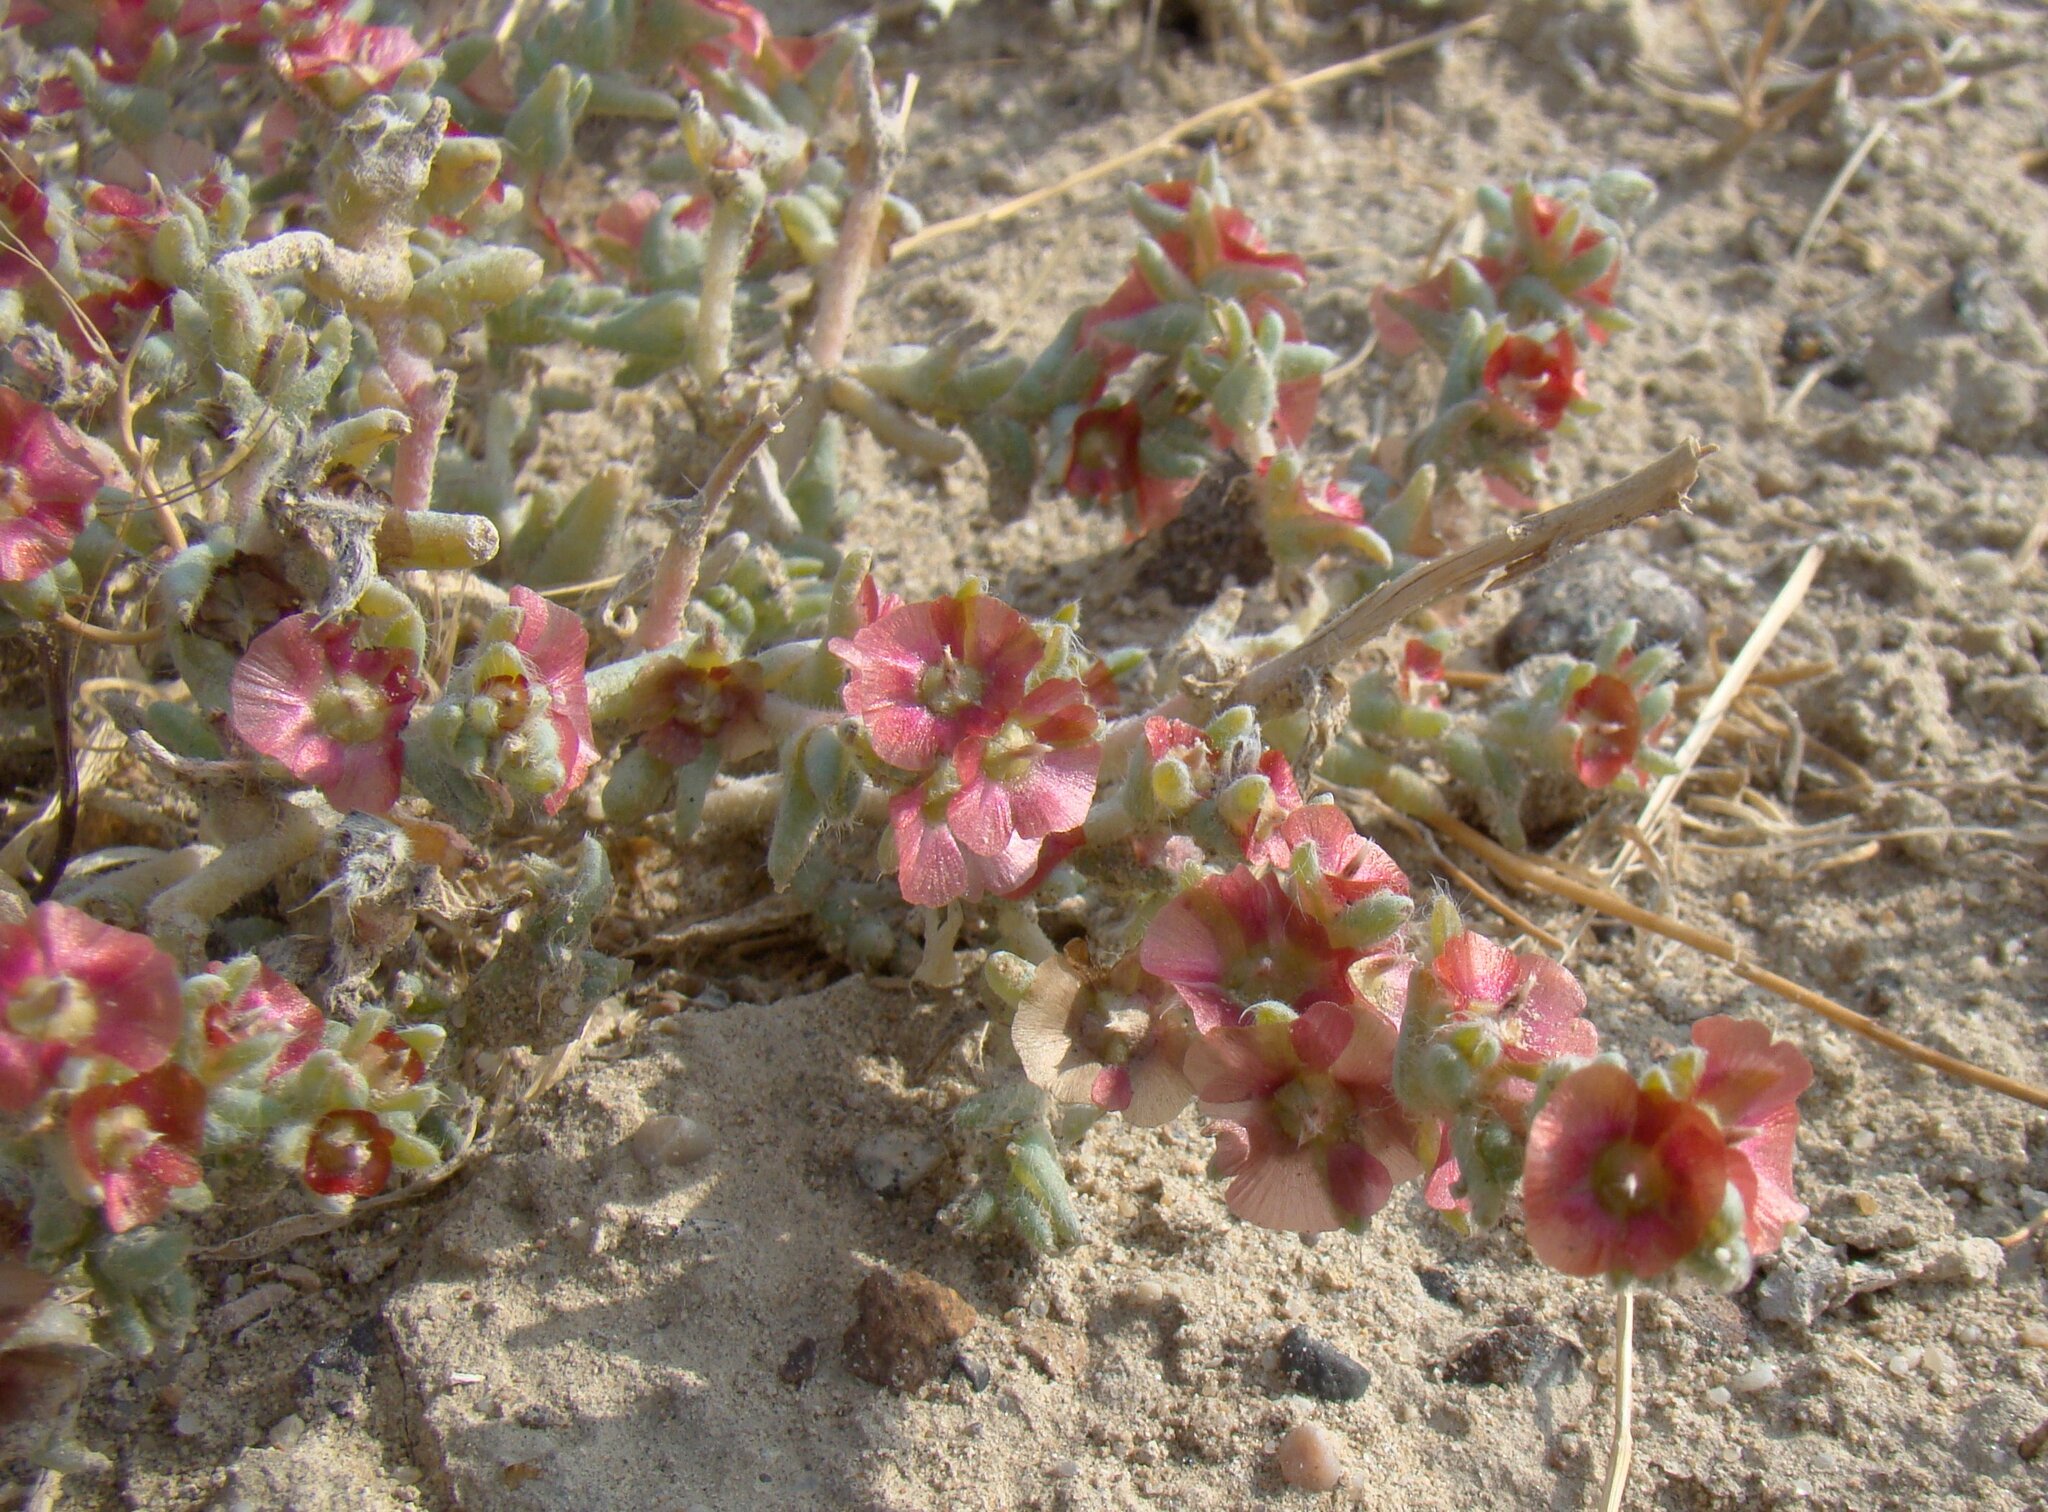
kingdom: Plantae
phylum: Tracheophyta
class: Magnoliopsida
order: Caryophyllales
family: Amaranthaceae
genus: Climacoptera
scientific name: Climacoptera lanata
